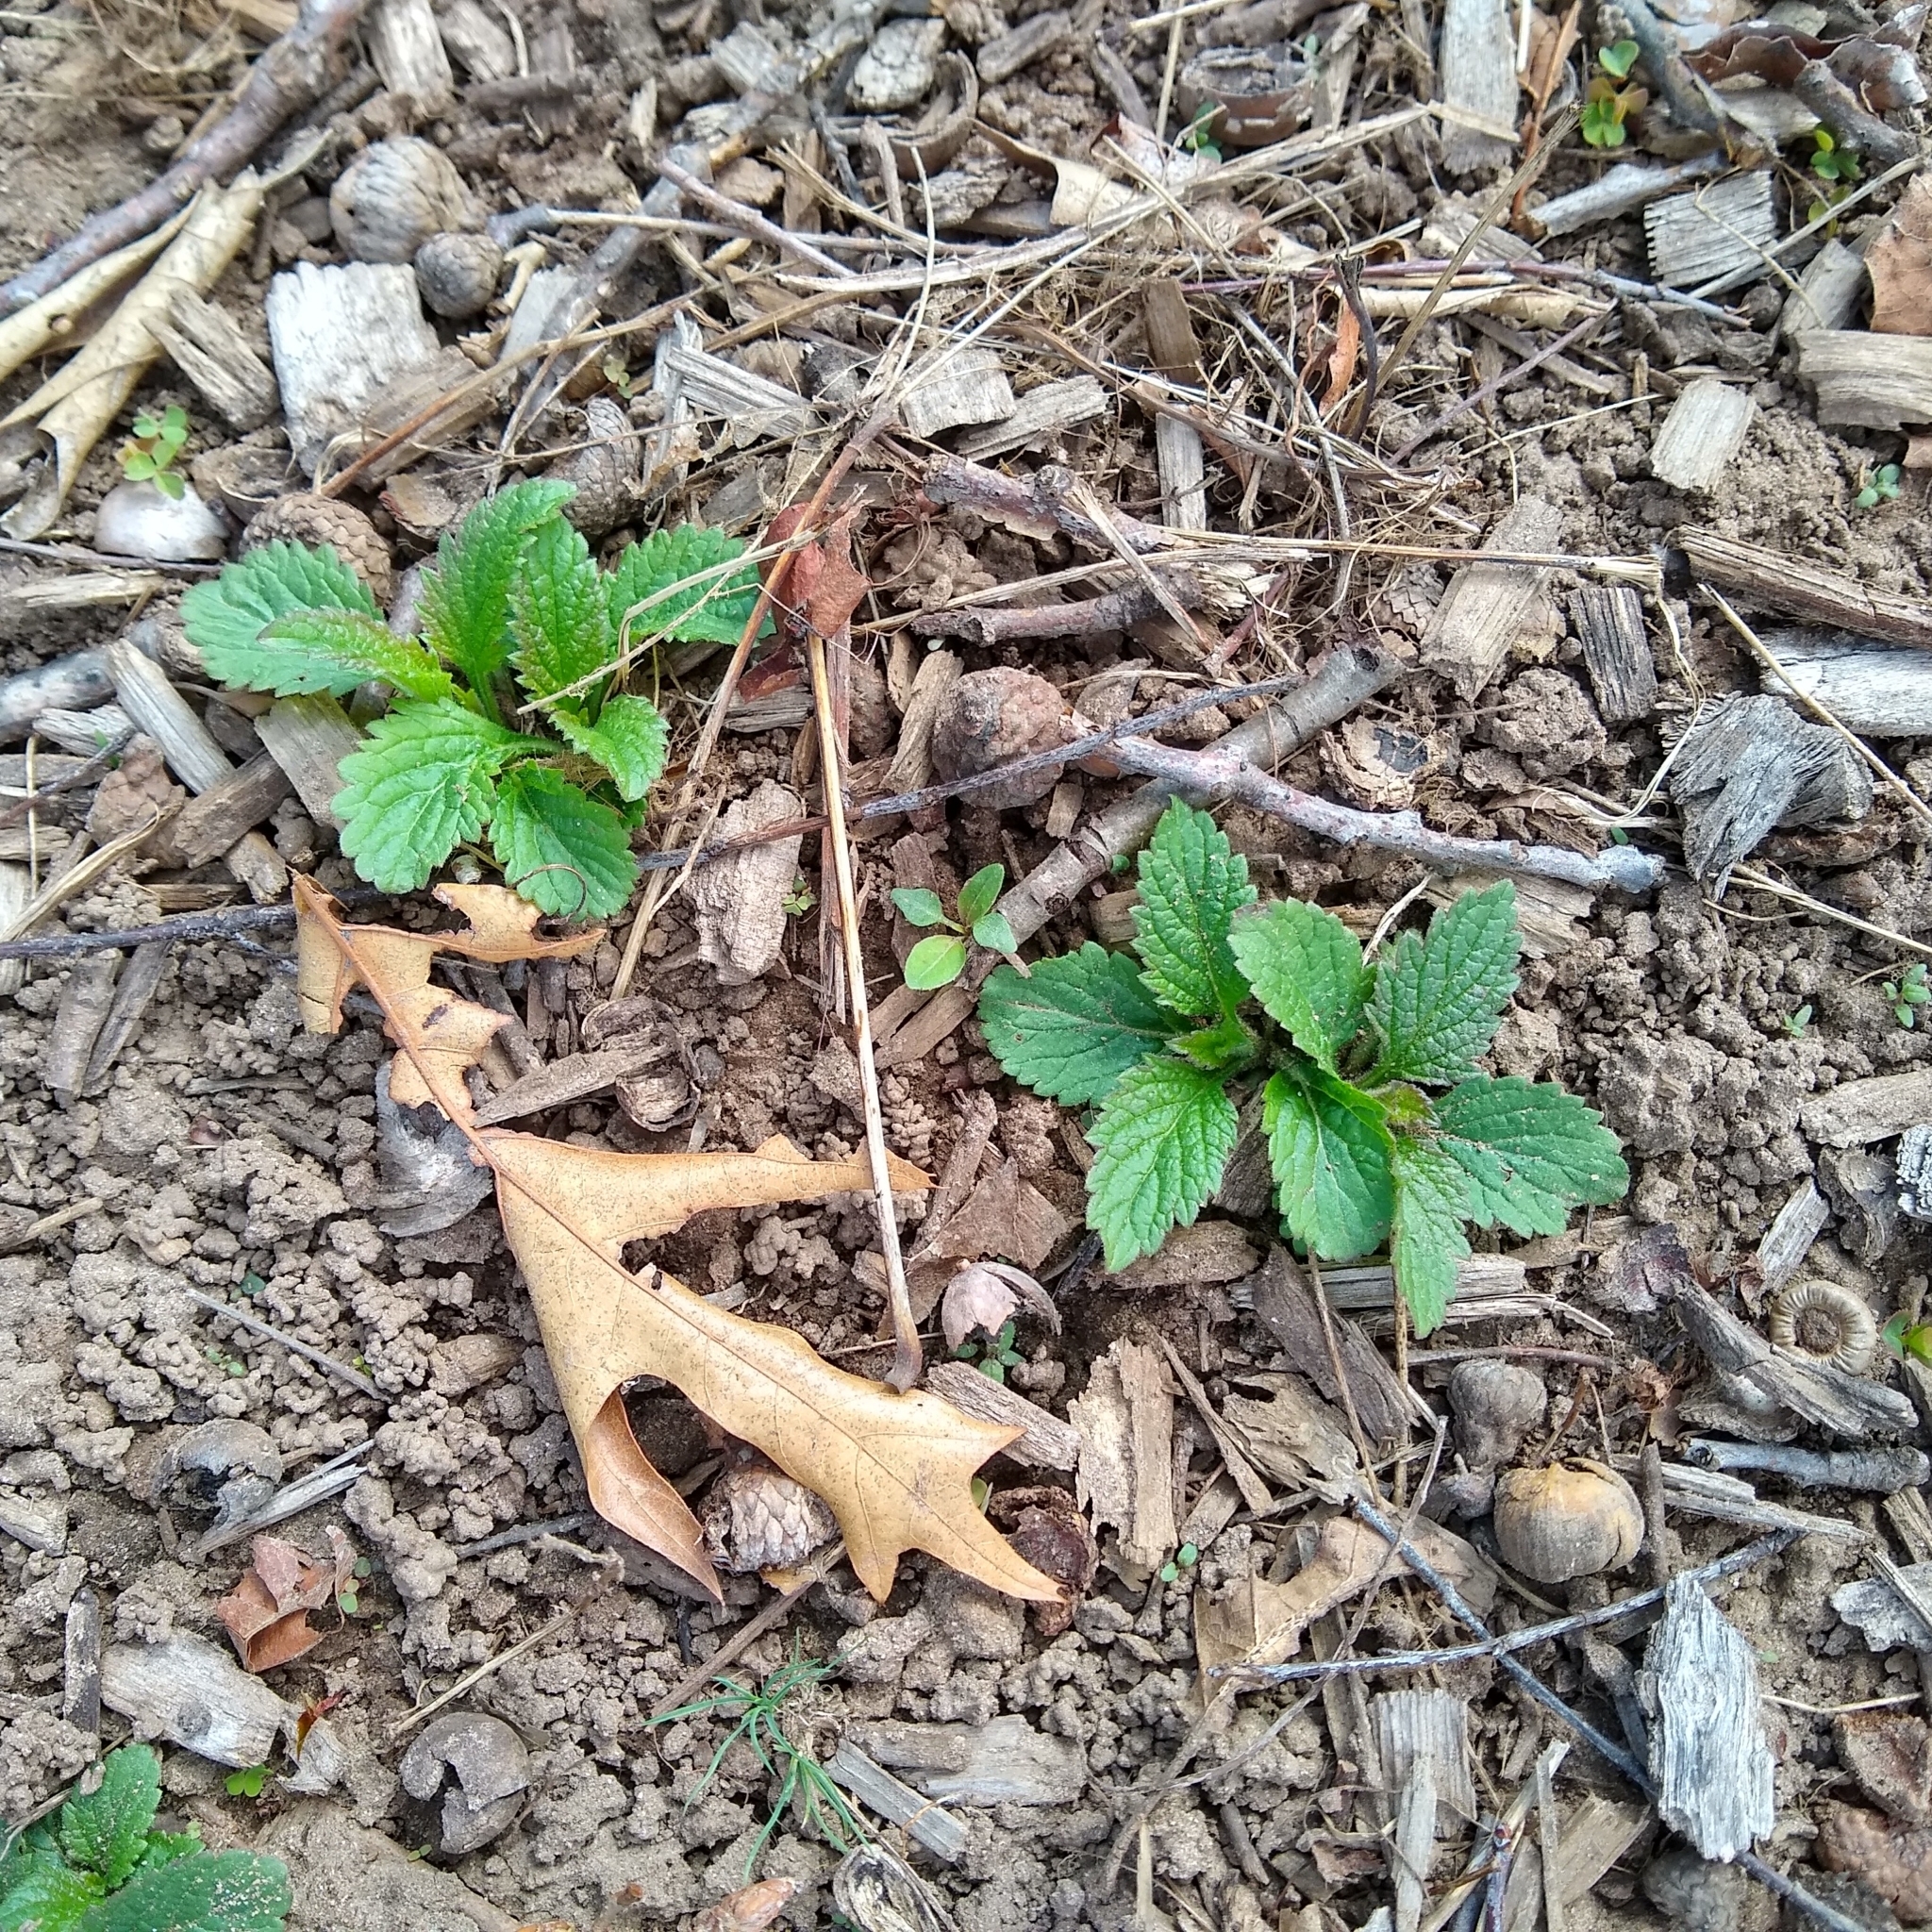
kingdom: Plantae
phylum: Tracheophyta
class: Magnoliopsida
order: Lamiales
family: Verbenaceae
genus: Verbena
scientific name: Verbena urticifolia
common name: Nettle-leaved vervain
